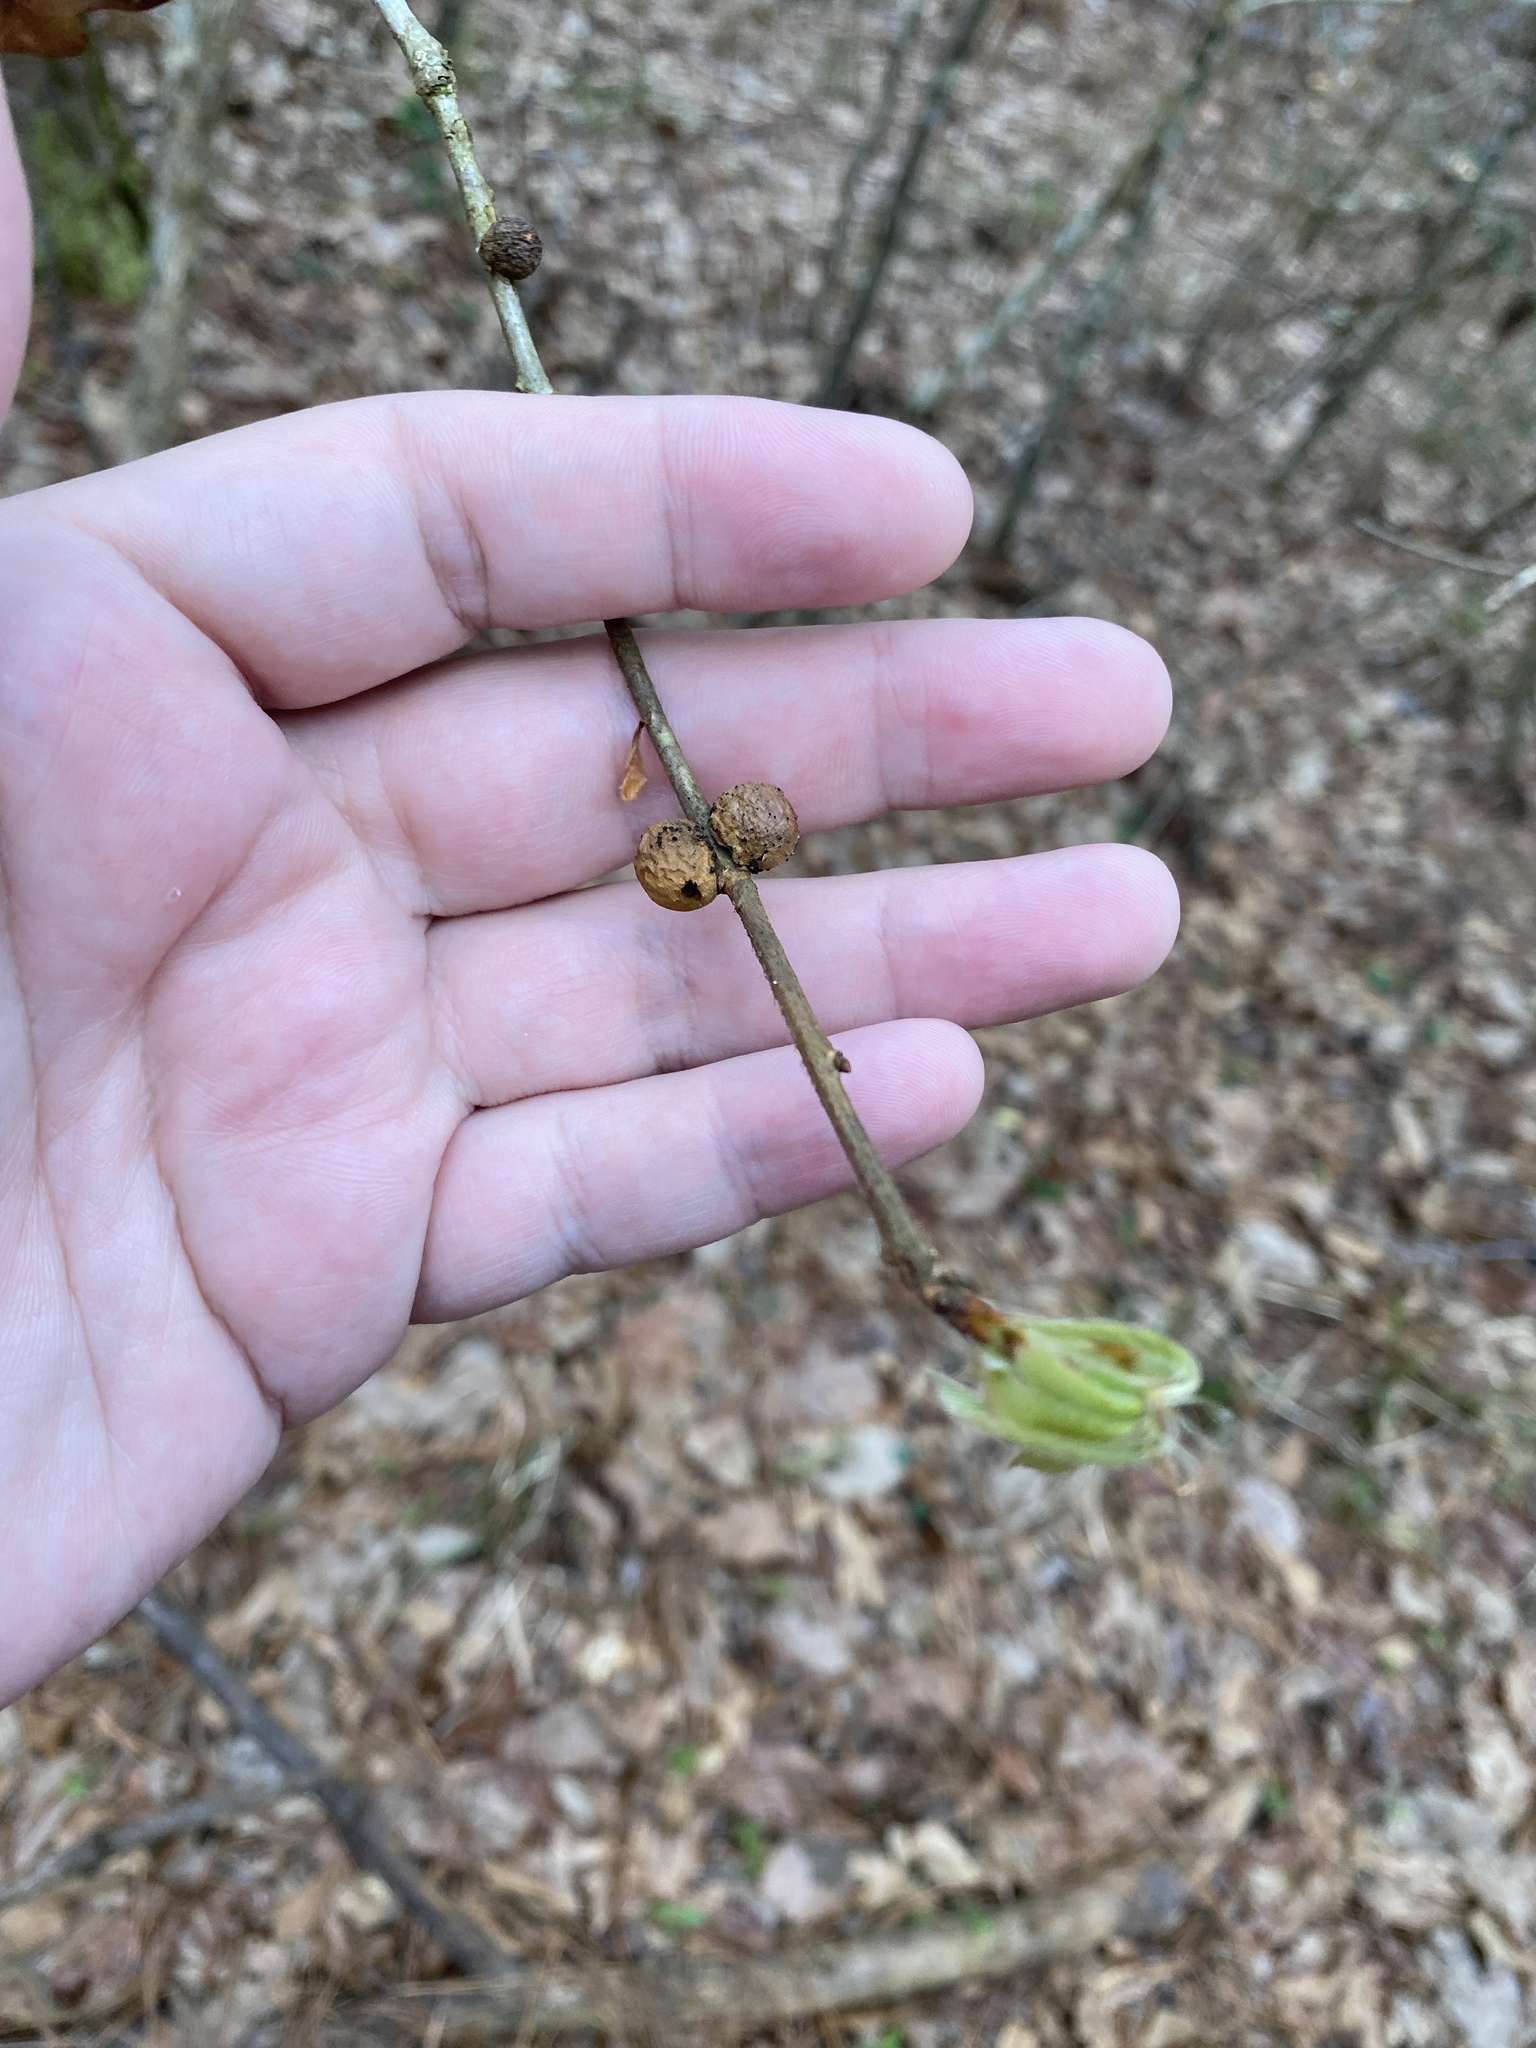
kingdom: Animalia
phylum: Arthropoda
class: Insecta
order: Hymenoptera
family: Cynipidae
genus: Disholcaspis
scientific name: Disholcaspis quercusglobulus
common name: Round bullet gall wasp
